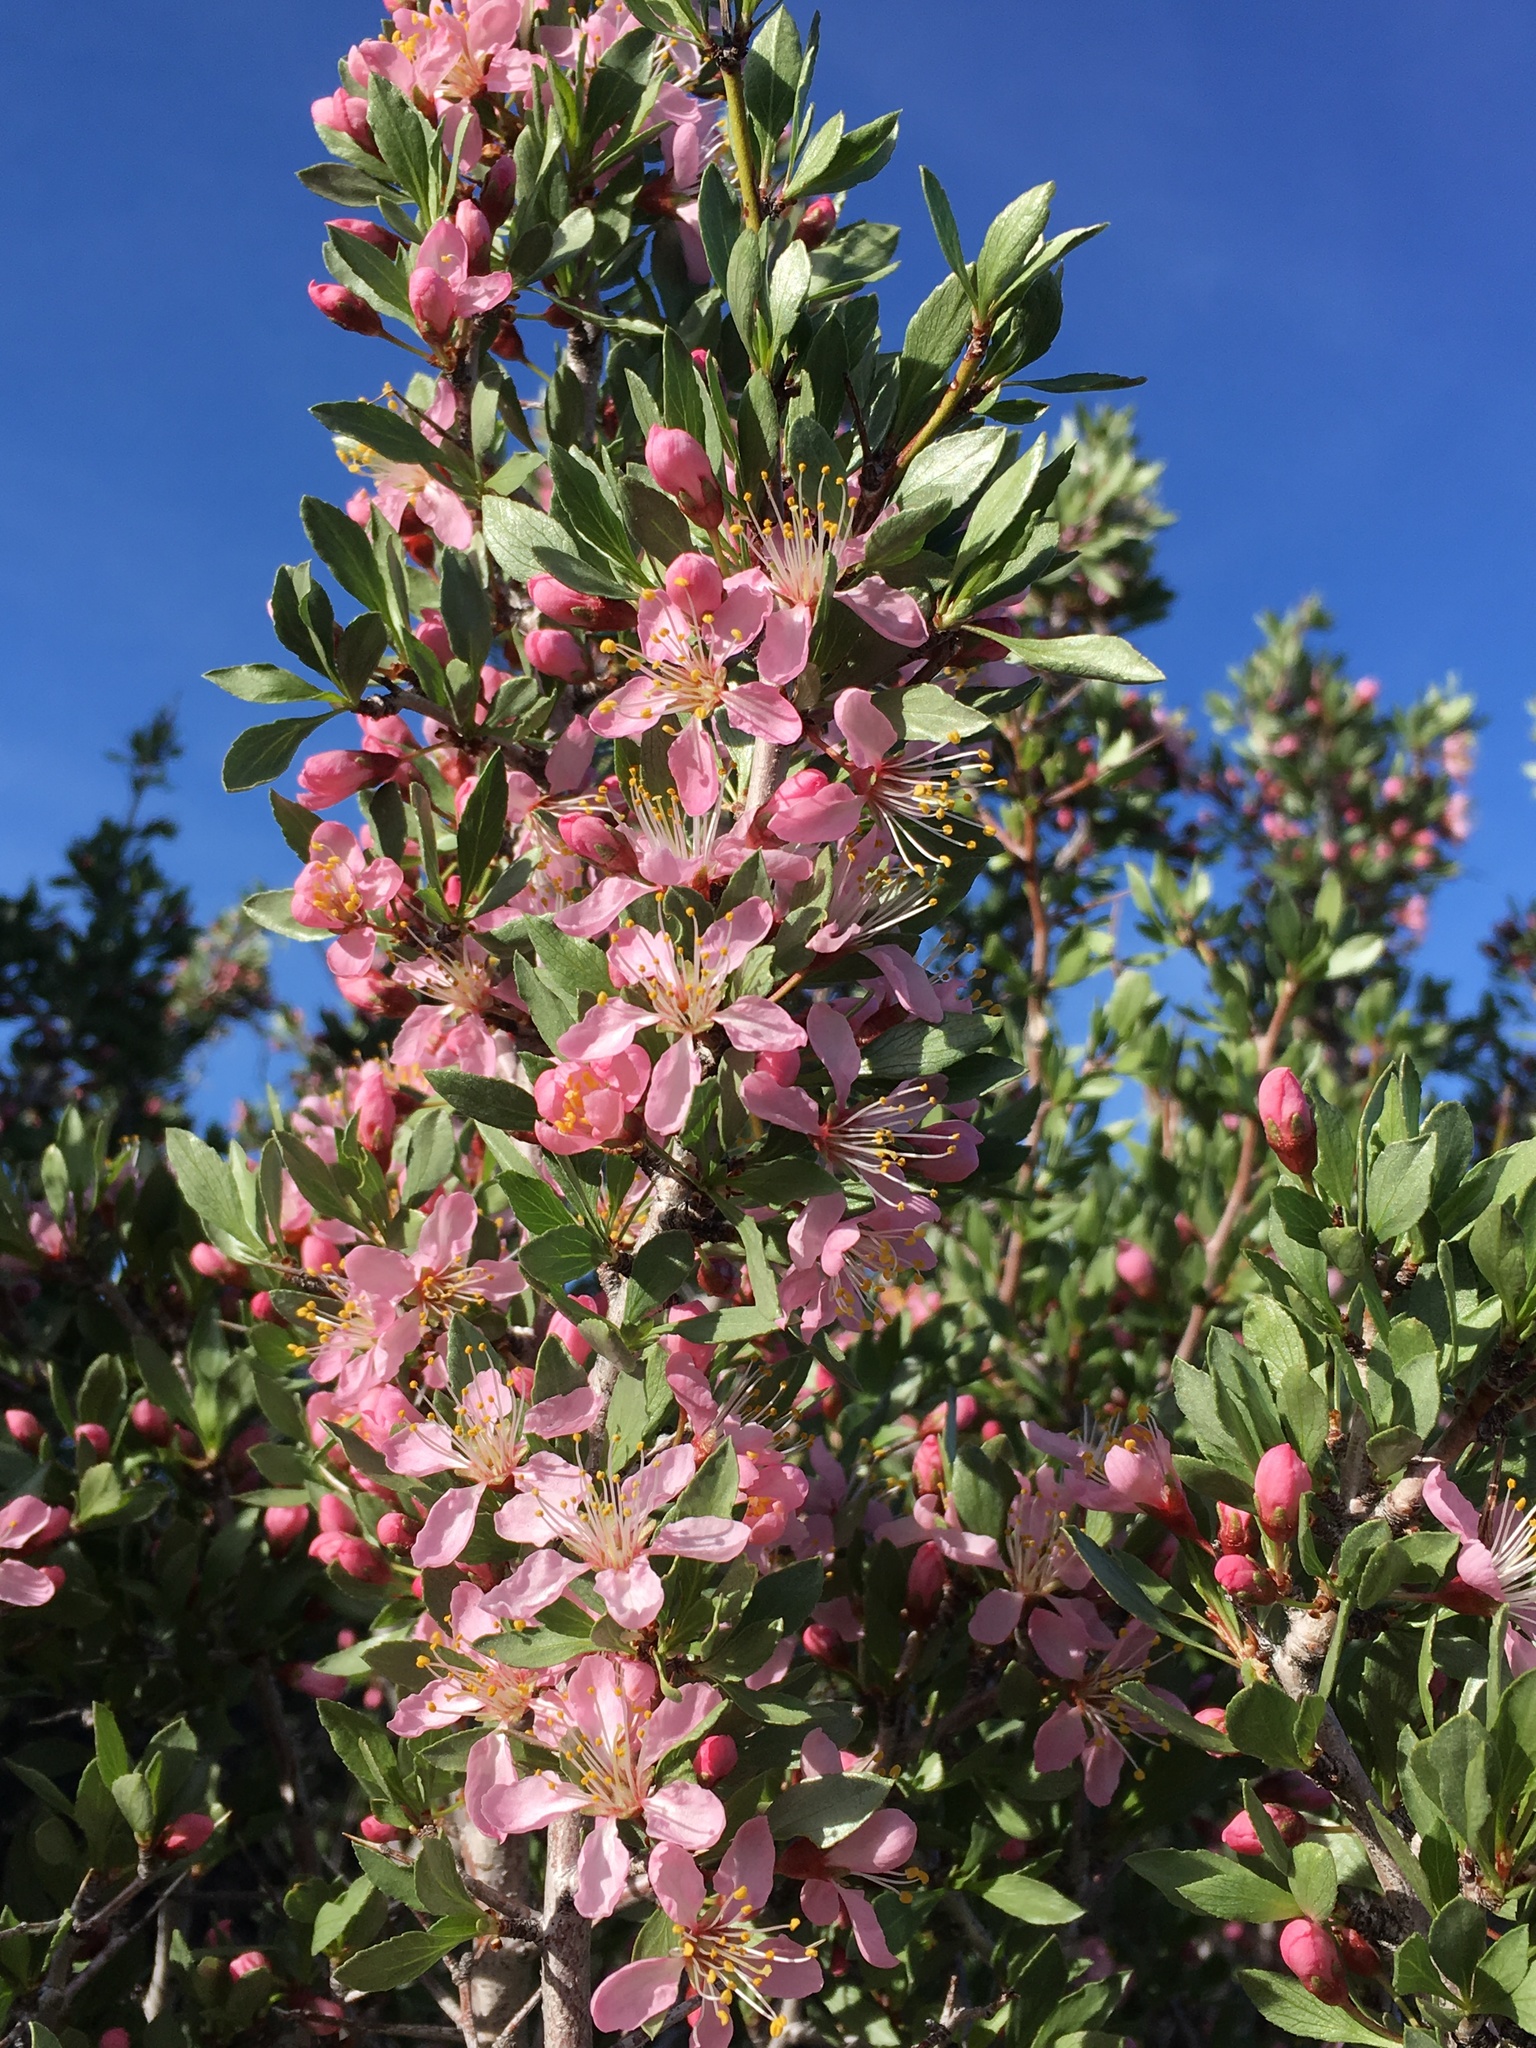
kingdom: Plantae
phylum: Tracheophyta
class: Magnoliopsida
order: Rosales
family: Rosaceae
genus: Prunus
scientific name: Prunus andersonii
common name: Desert peach
